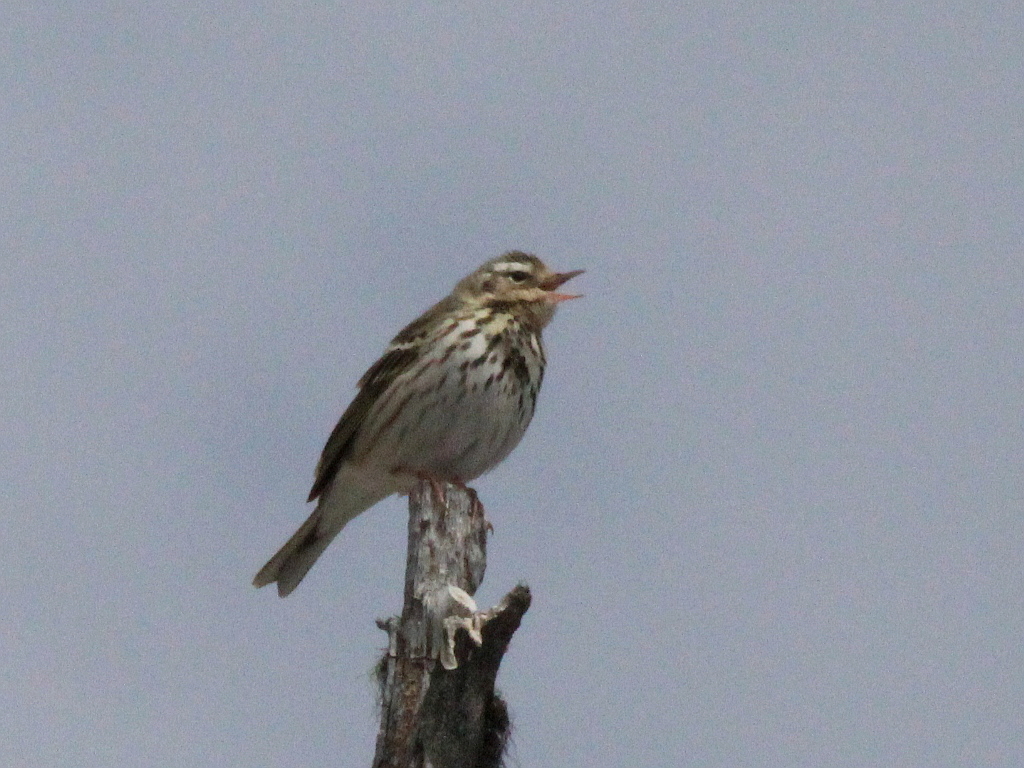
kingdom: Animalia
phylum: Chordata
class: Aves
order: Passeriformes
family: Motacillidae
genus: Anthus
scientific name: Anthus hodgsoni
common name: Olive-backed pipit
